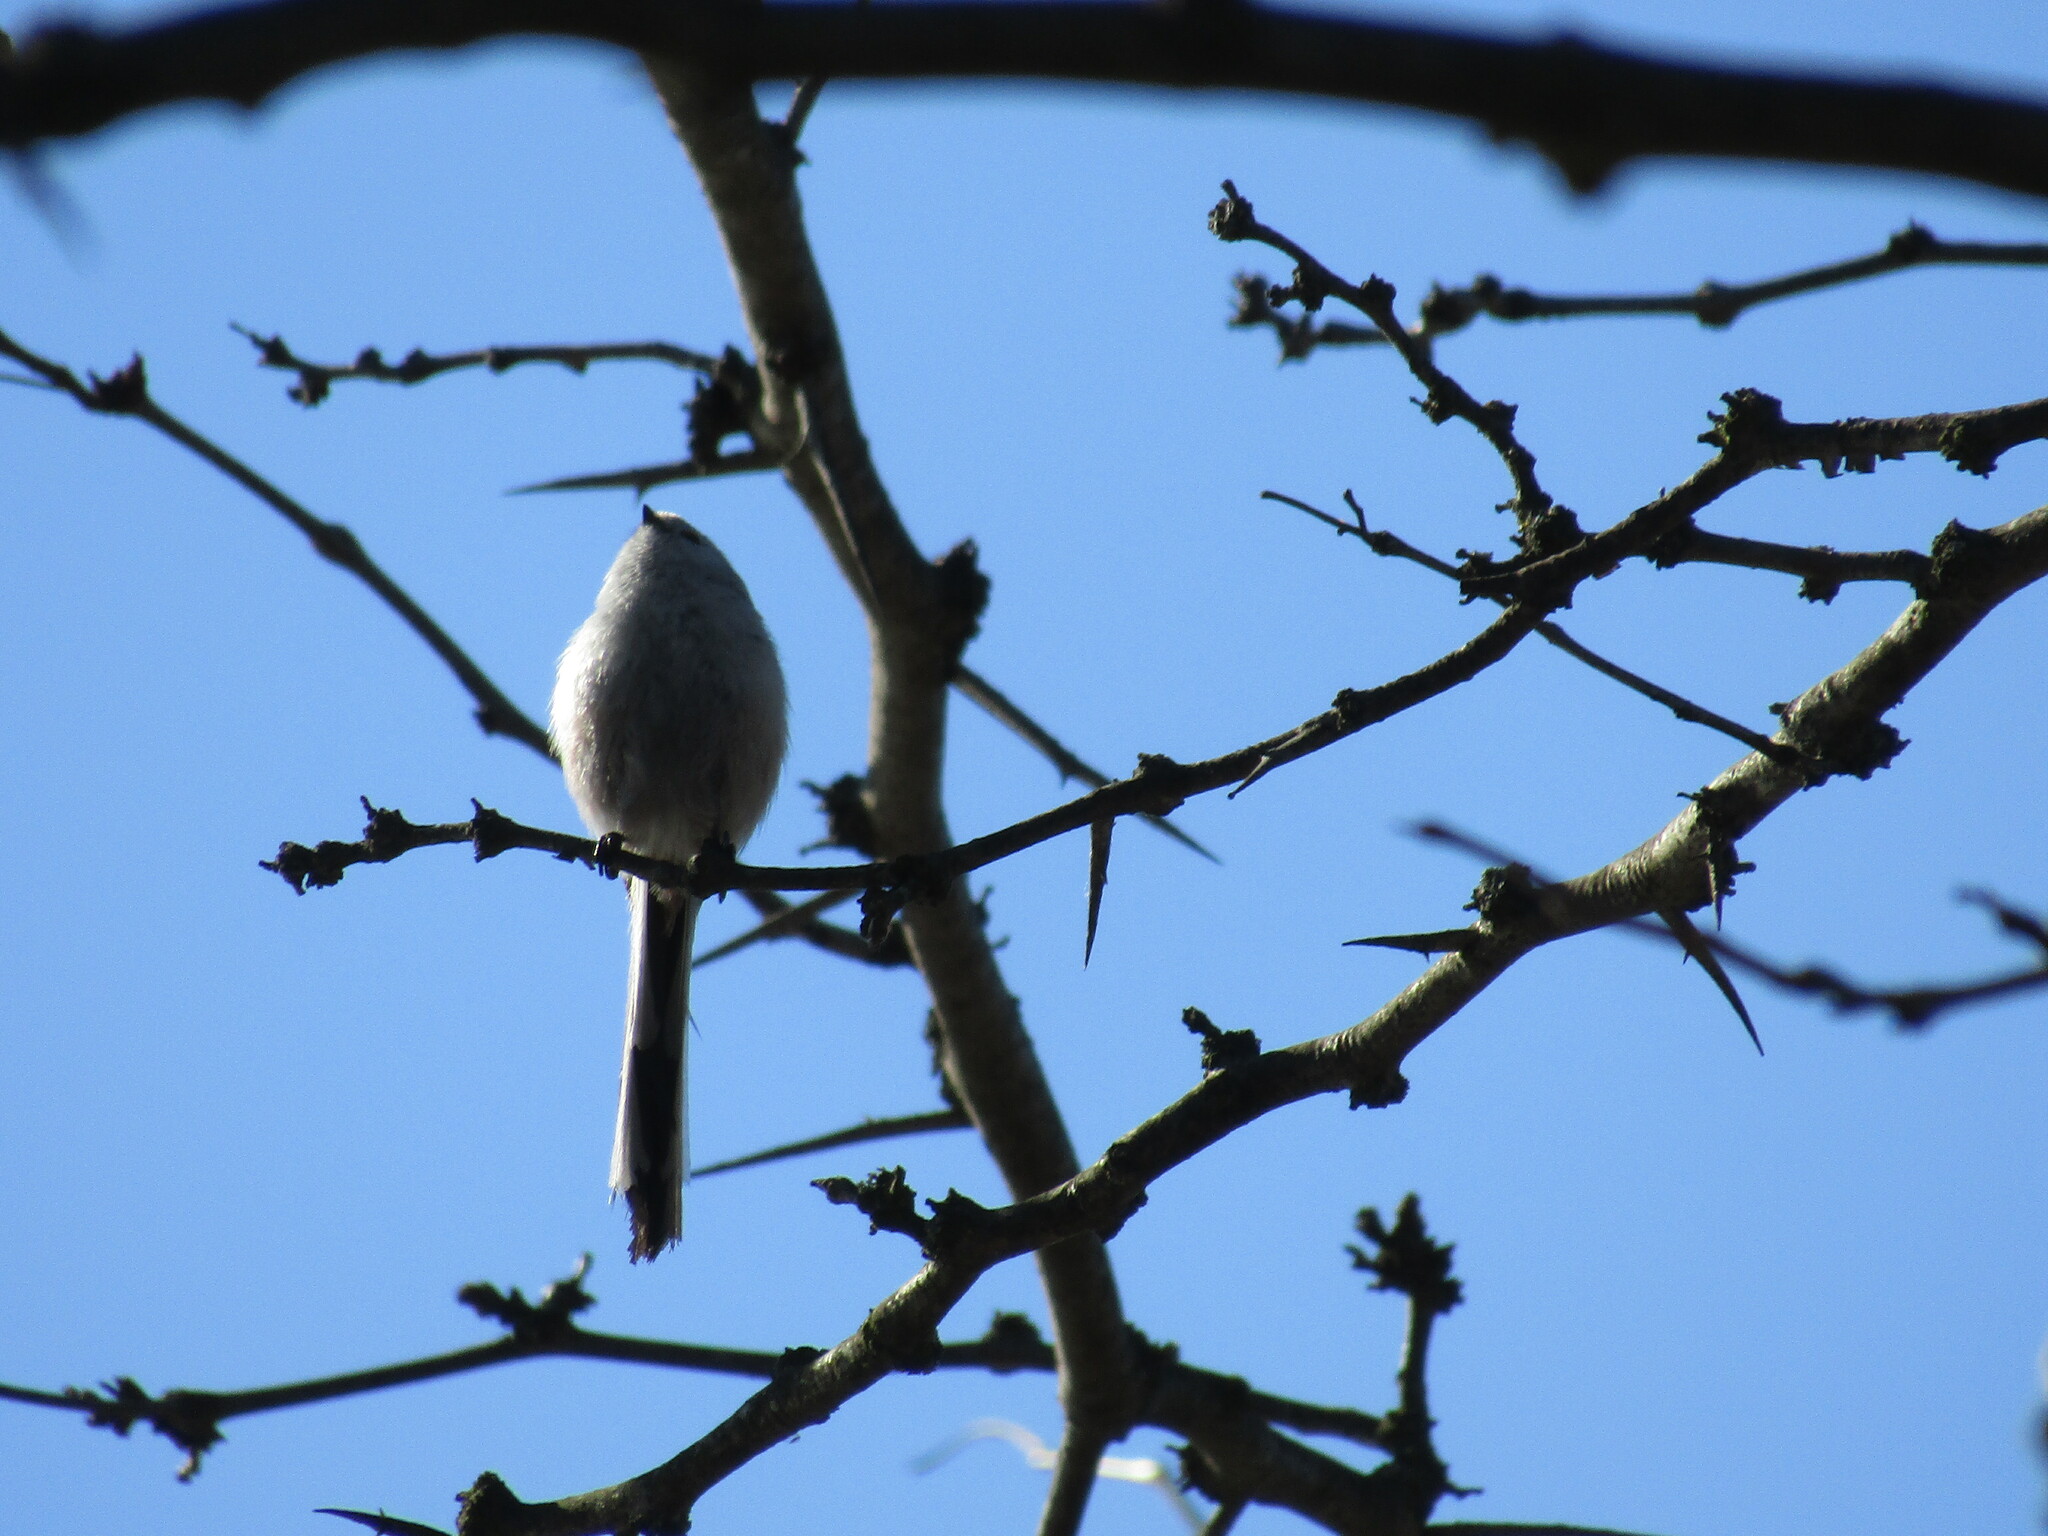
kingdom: Animalia
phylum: Chordata
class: Aves
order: Passeriformes
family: Aegithalidae
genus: Aegithalos
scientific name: Aegithalos caudatus
